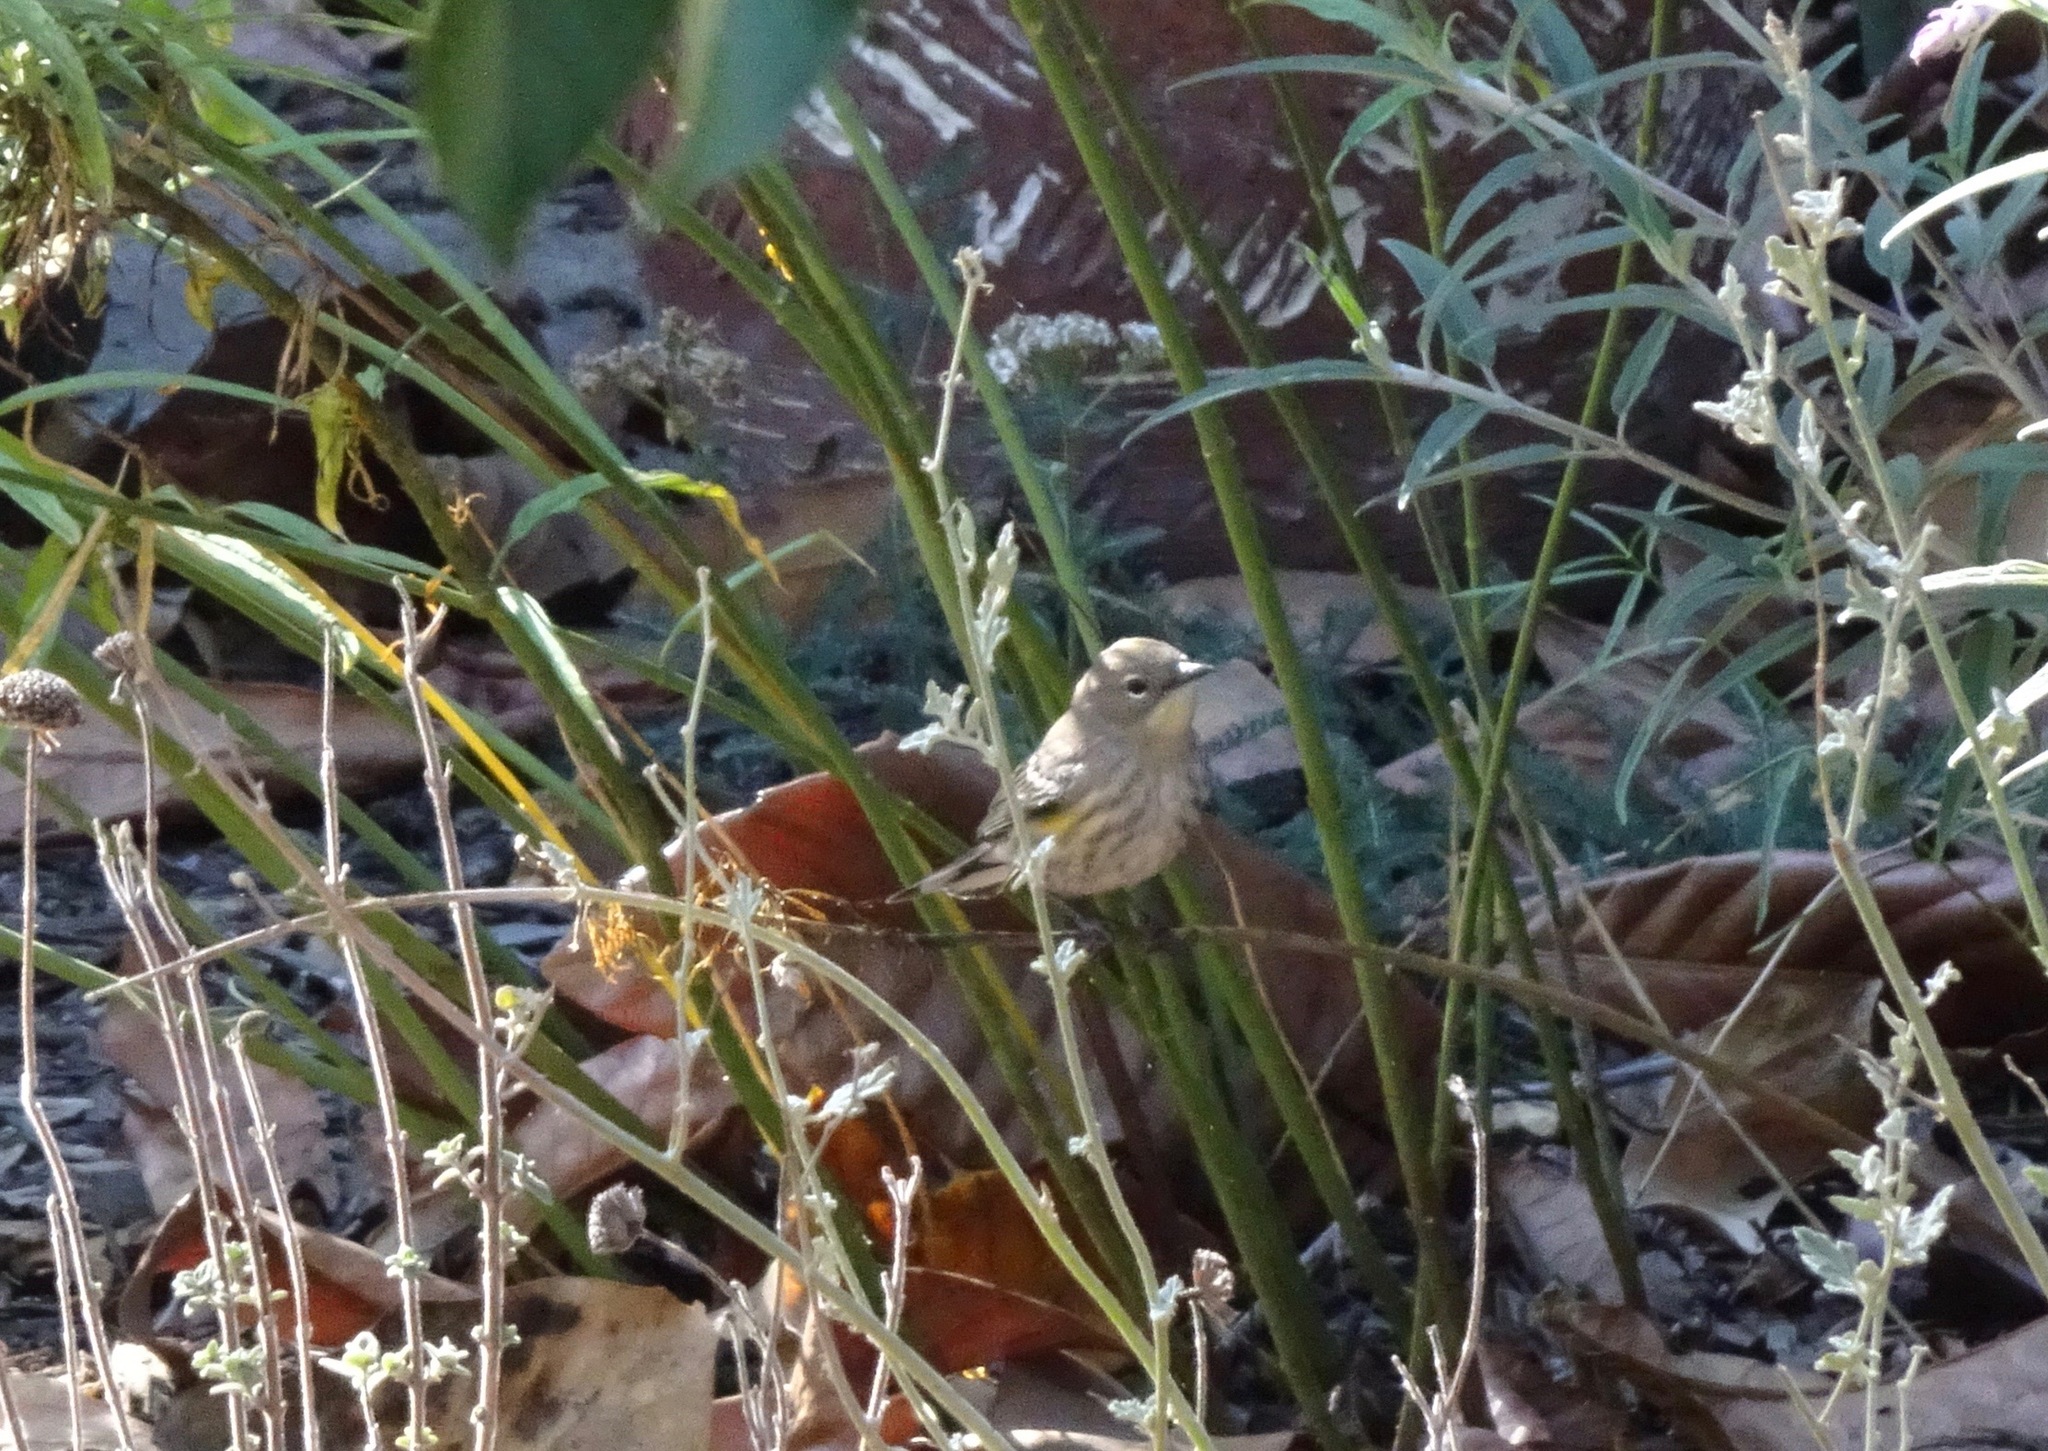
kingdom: Animalia
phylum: Chordata
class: Aves
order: Passeriformes
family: Parulidae
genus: Setophaga
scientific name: Setophaga coronata
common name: Myrtle warbler
